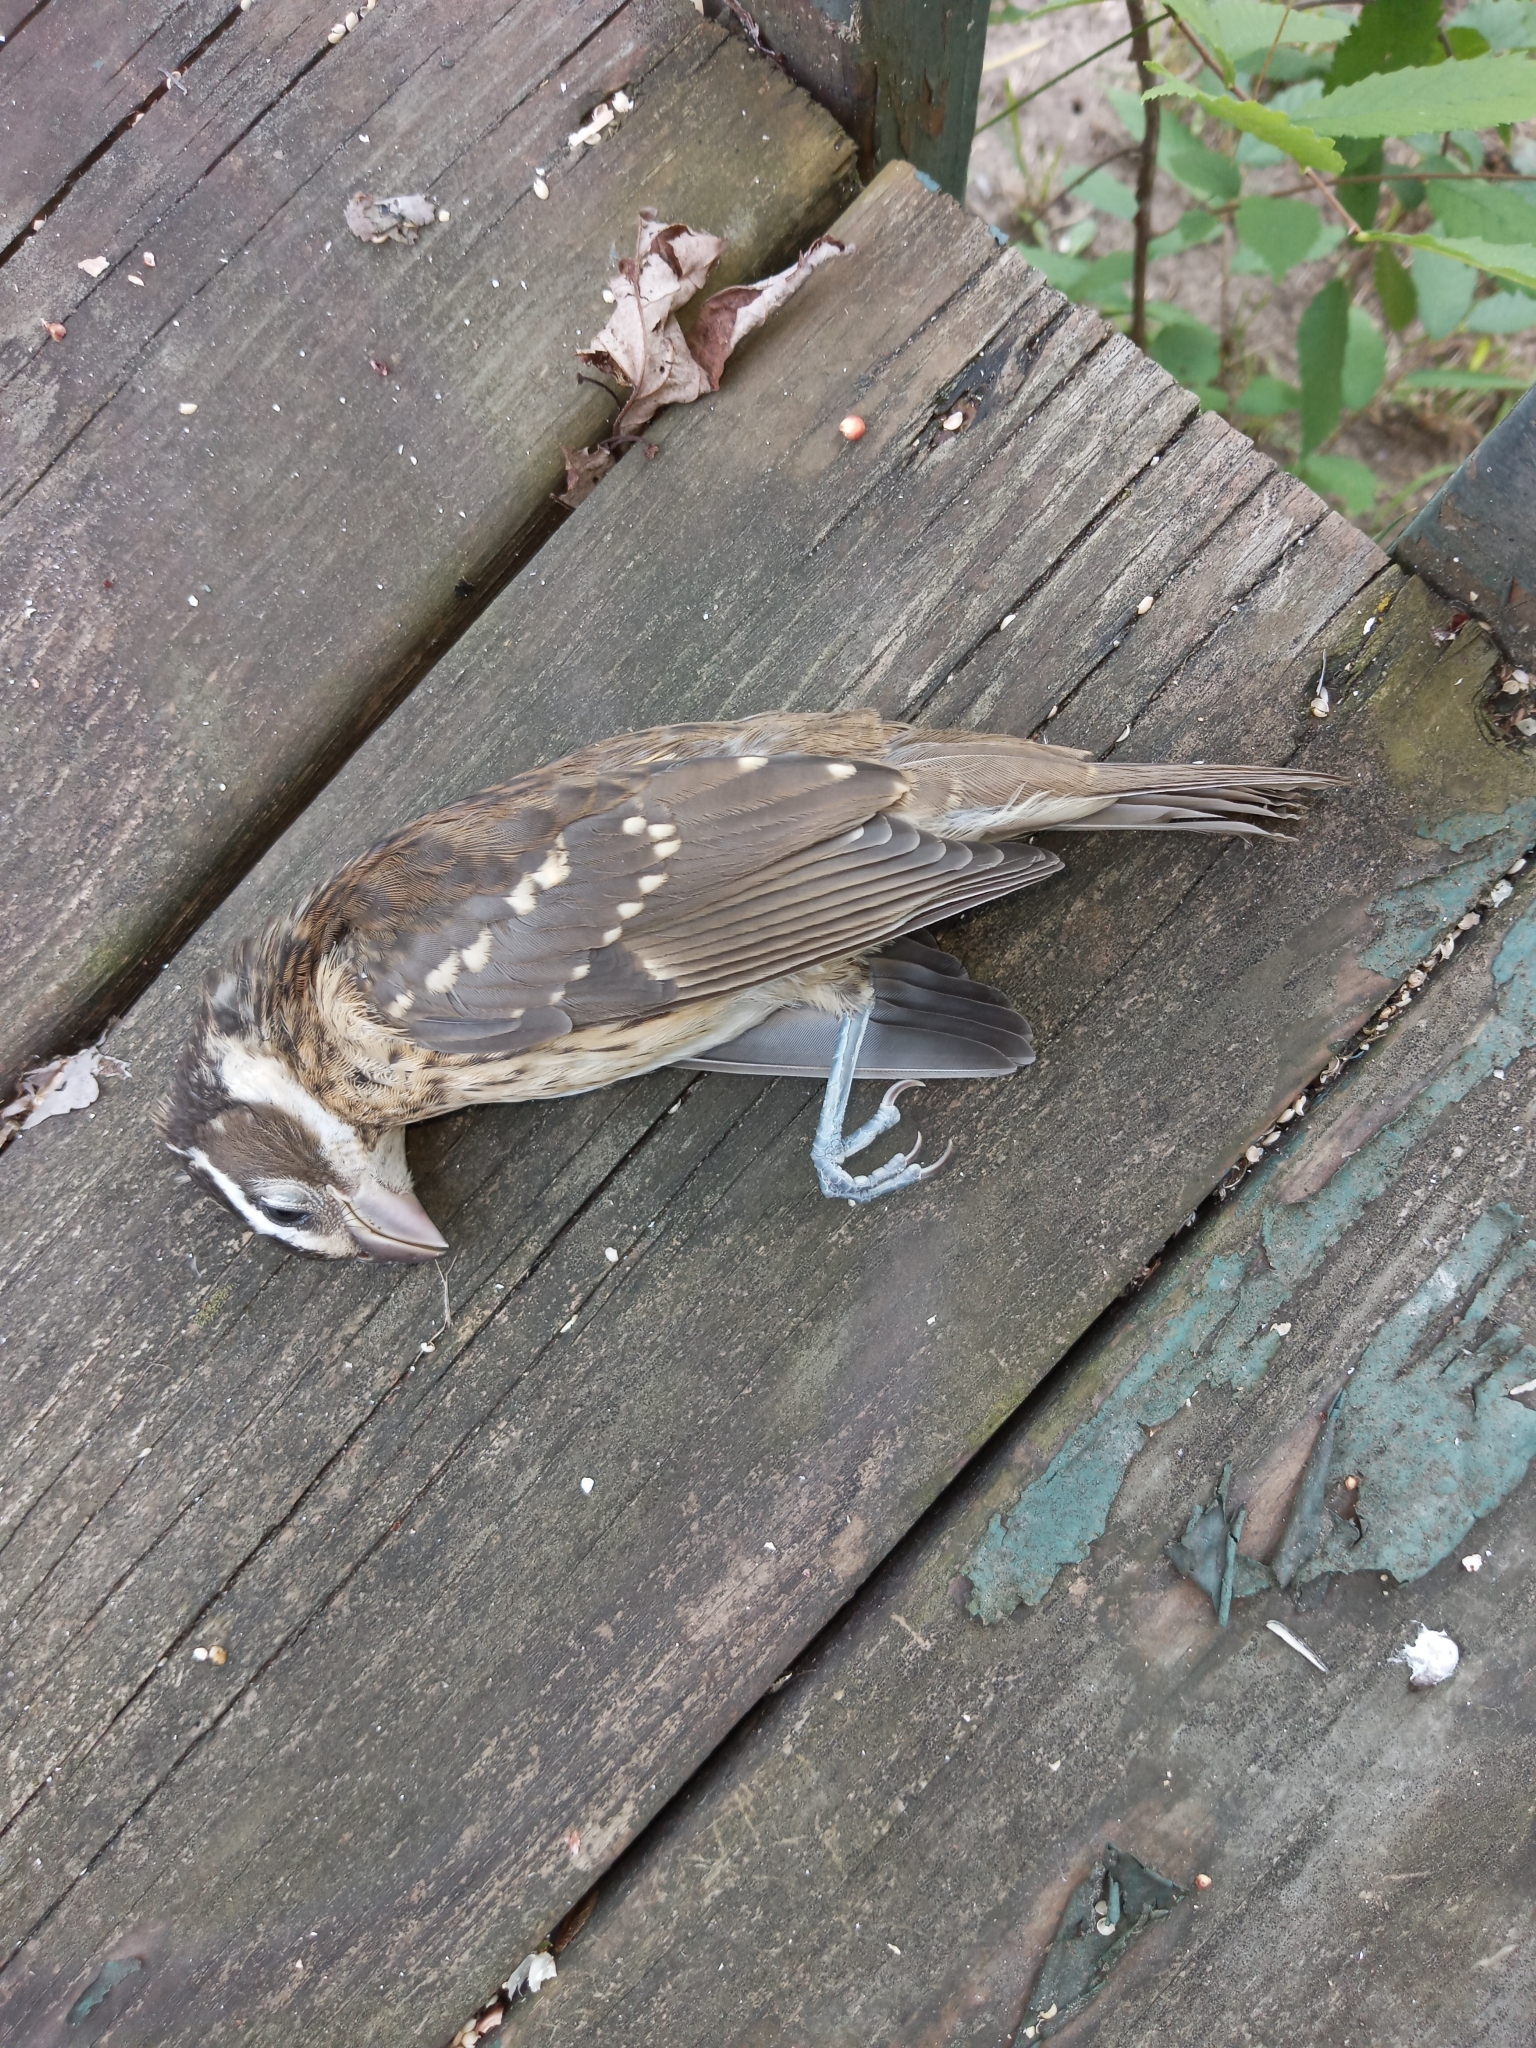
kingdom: Animalia
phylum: Chordata
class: Aves
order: Passeriformes
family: Cardinalidae
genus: Pheucticus
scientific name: Pheucticus ludovicianus
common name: Rose-breasted grosbeak
